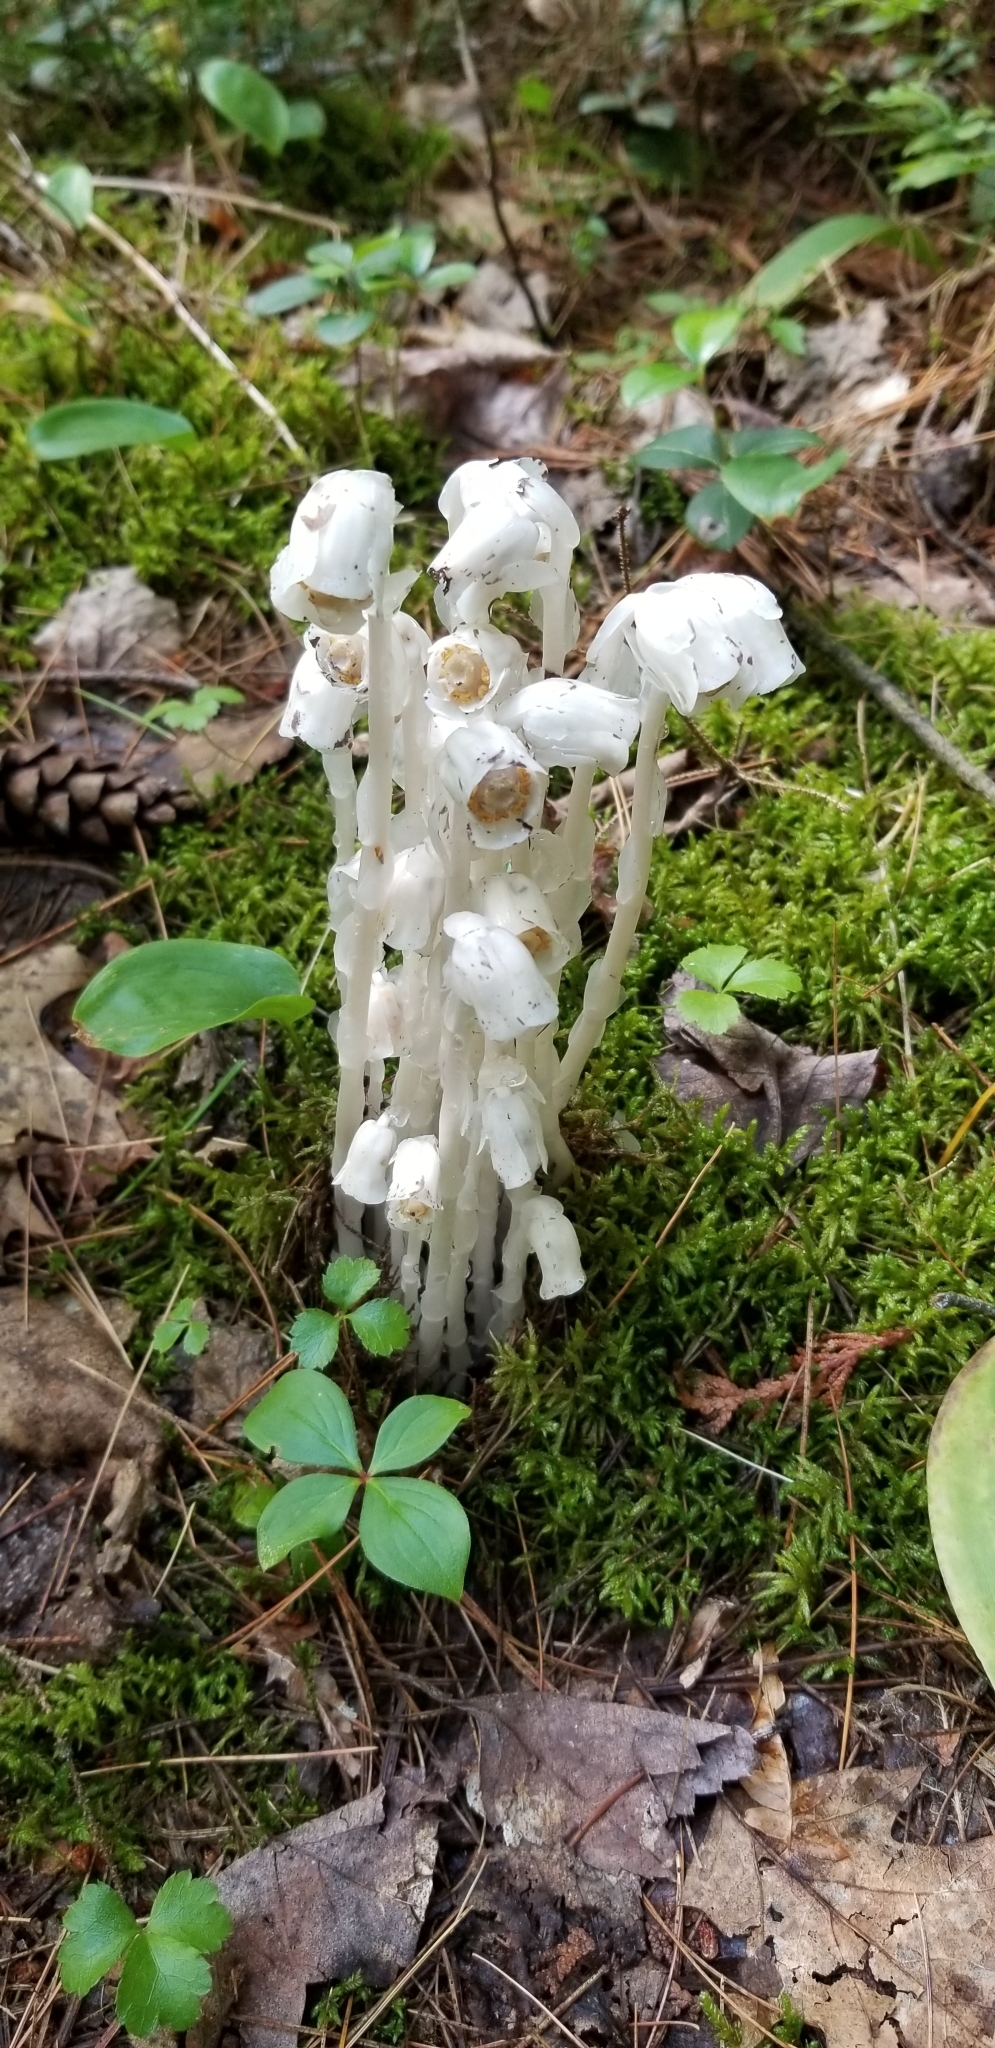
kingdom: Plantae
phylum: Tracheophyta
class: Magnoliopsida
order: Ericales
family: Ericaceae
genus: Monotropa
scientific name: Monotropa uniflora
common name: Convulsion root
